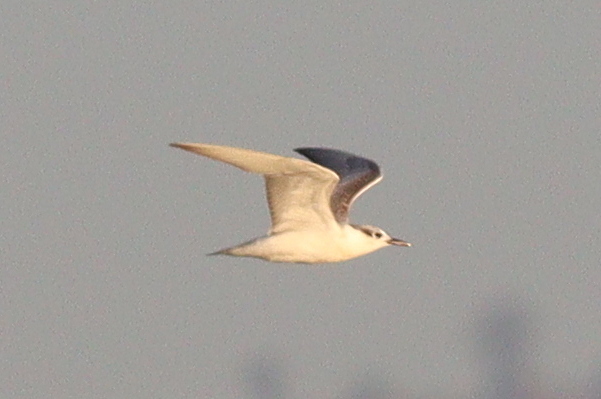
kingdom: Animalia
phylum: Chordata
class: Aves
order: Charadriiformes
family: Laridae
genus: Chlidonias
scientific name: Chlidonias hybrida
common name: Whiskered tern
